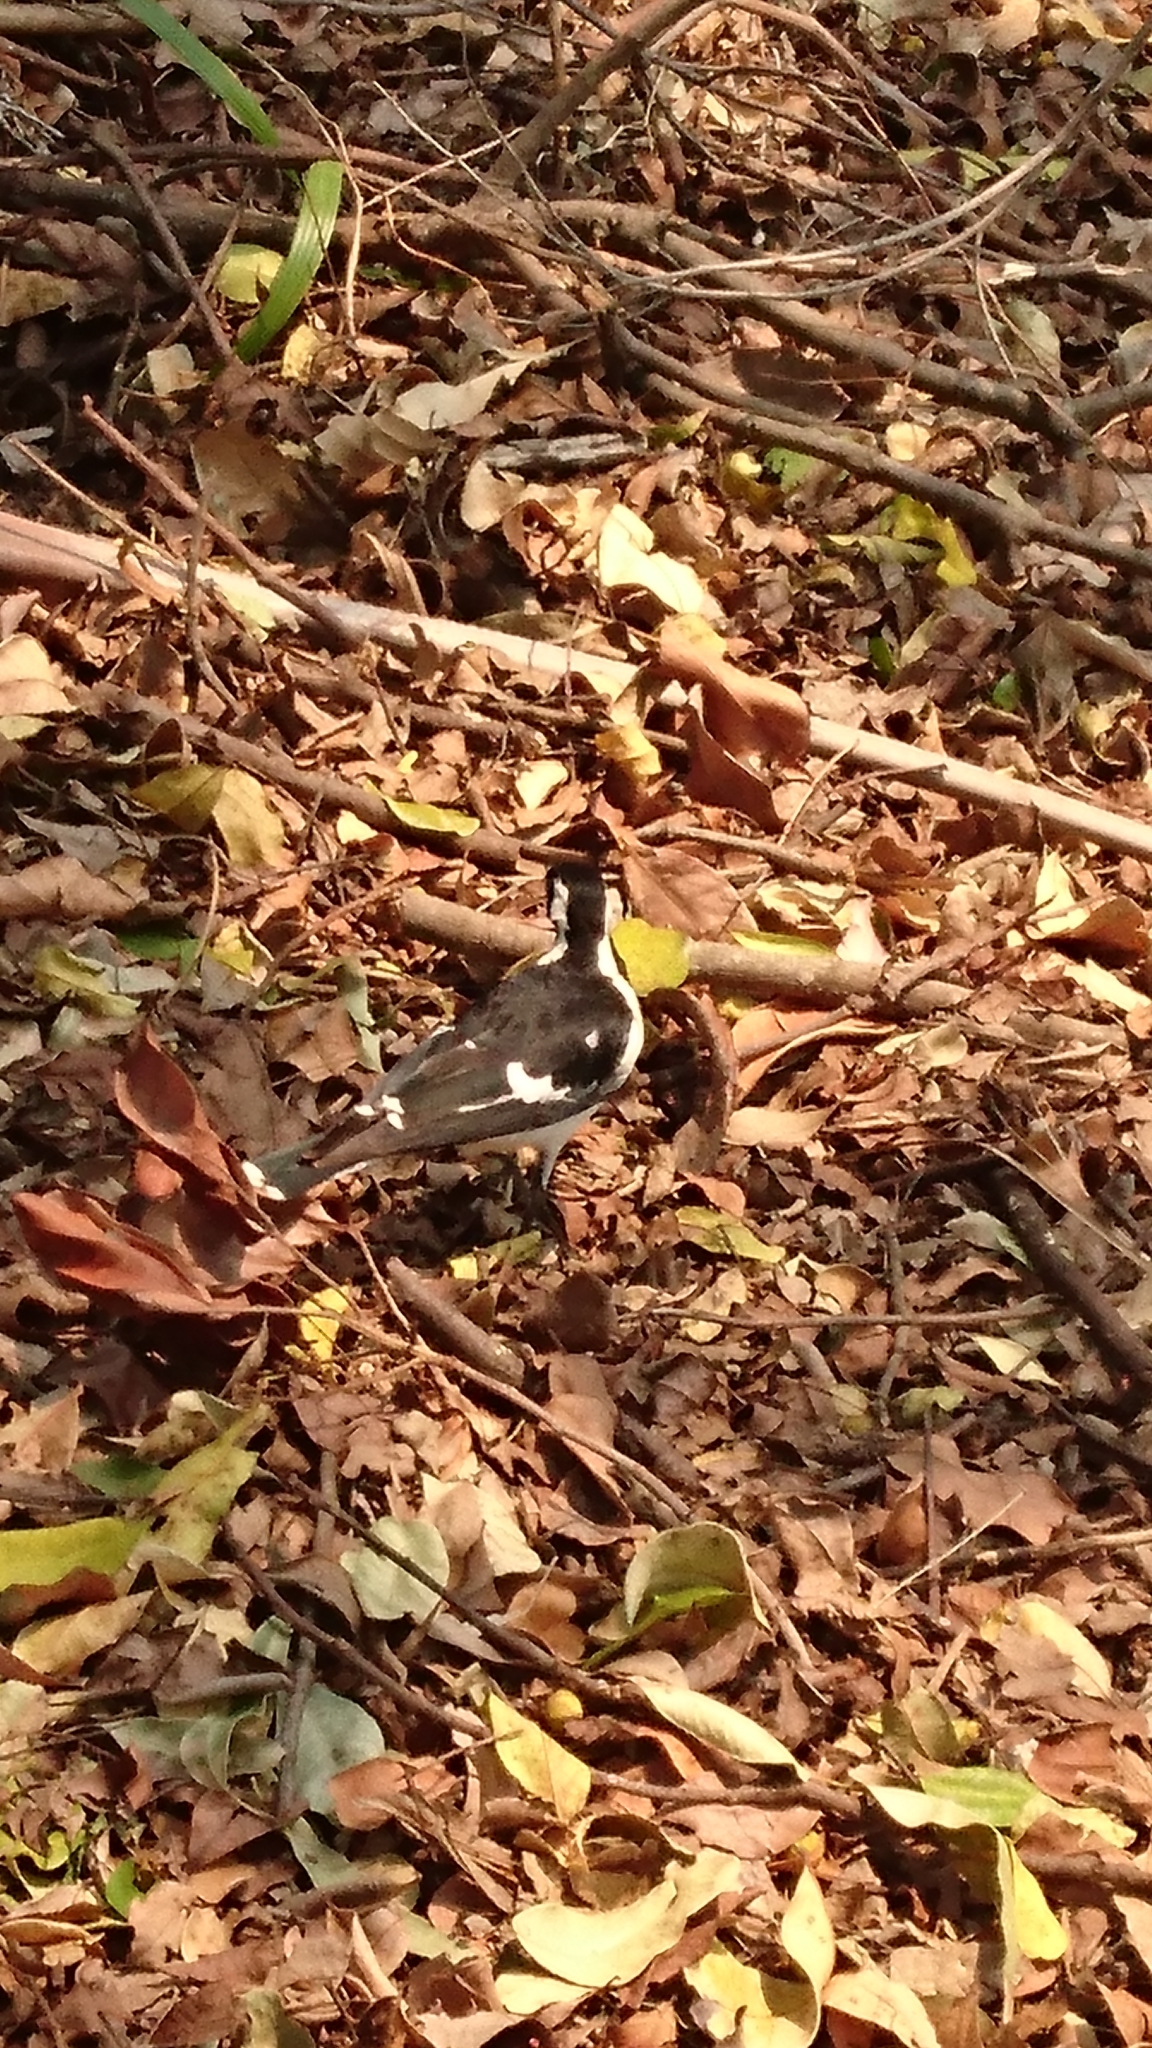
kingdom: Animalia
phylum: Chordata
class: Aves
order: Passeriformes
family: Monarchidae
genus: Grallina
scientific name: Grallina cyanoleuca
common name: Magpie-lark
